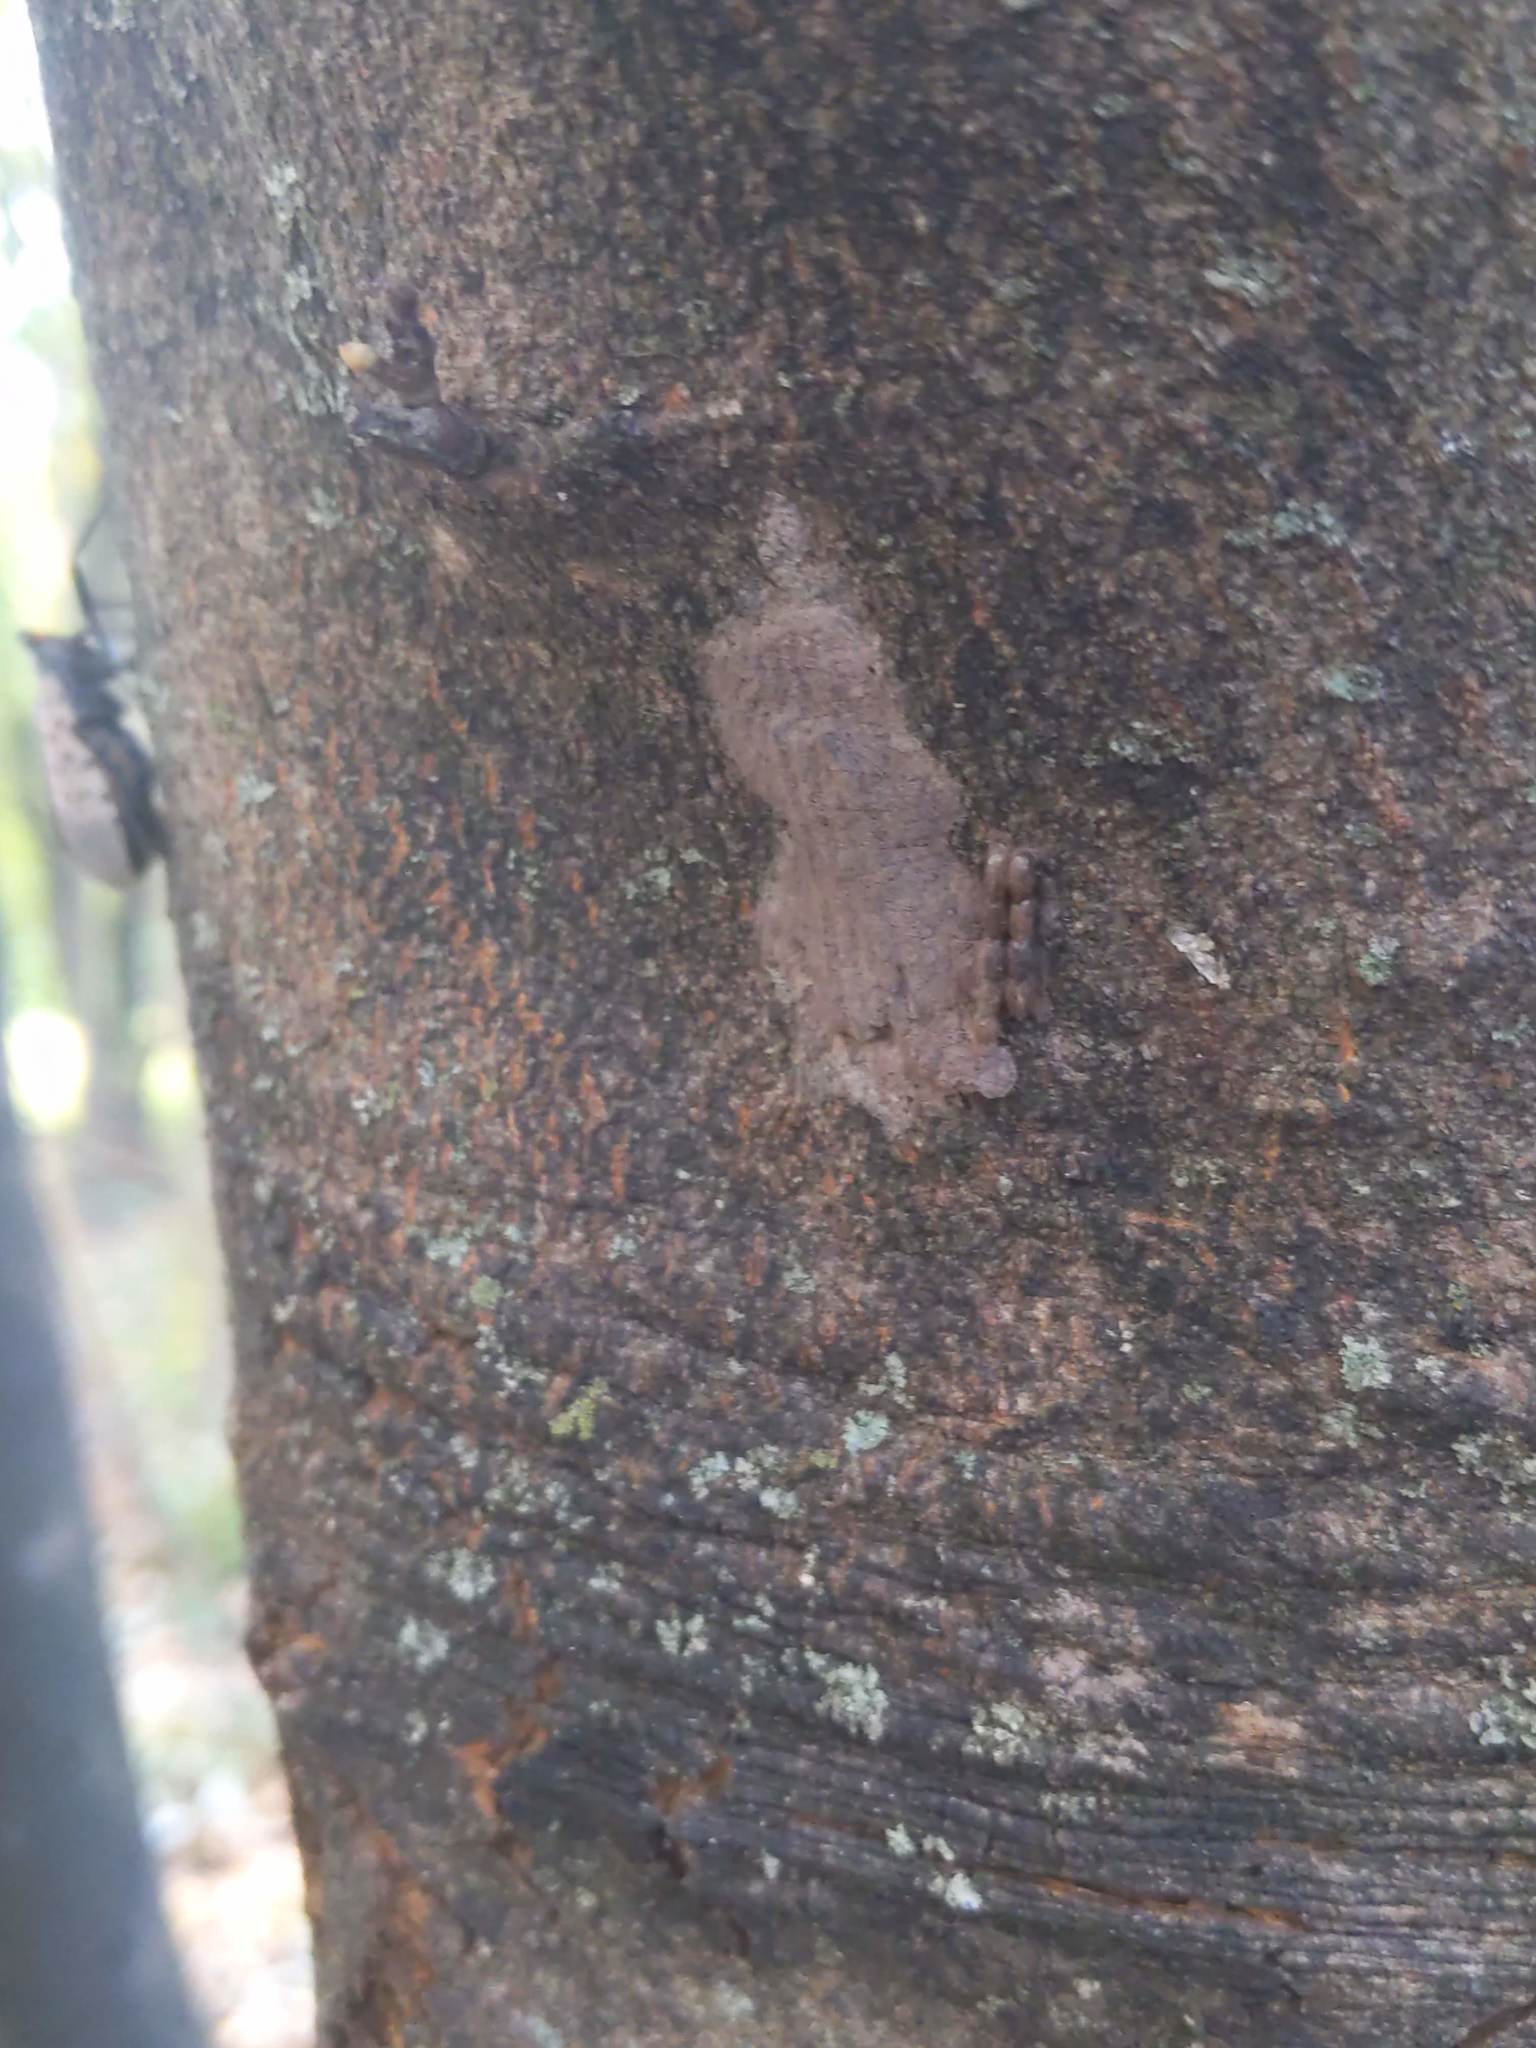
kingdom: Animalia
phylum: Arthropoda
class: Insecta
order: Hemiptera
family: Fulgoridae
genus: Lycorma
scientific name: Lycorma delicatula
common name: Spotted lanternfly
